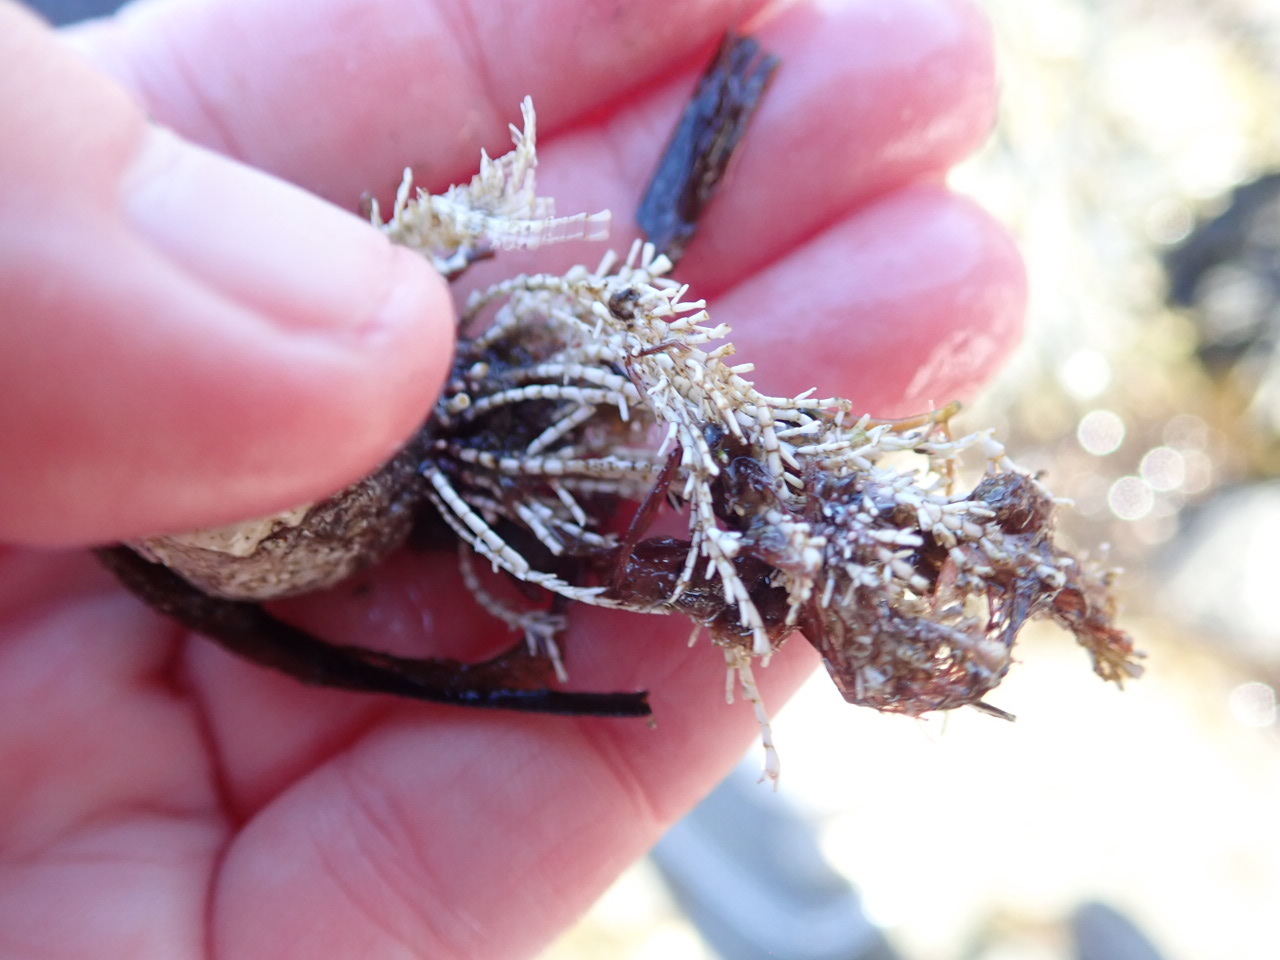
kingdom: Plantae
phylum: Rhodophyta
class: Florideophyceae
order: Corallinales
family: Corallinaceae
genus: Corallina
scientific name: Corallina officinalis
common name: Coral weed
